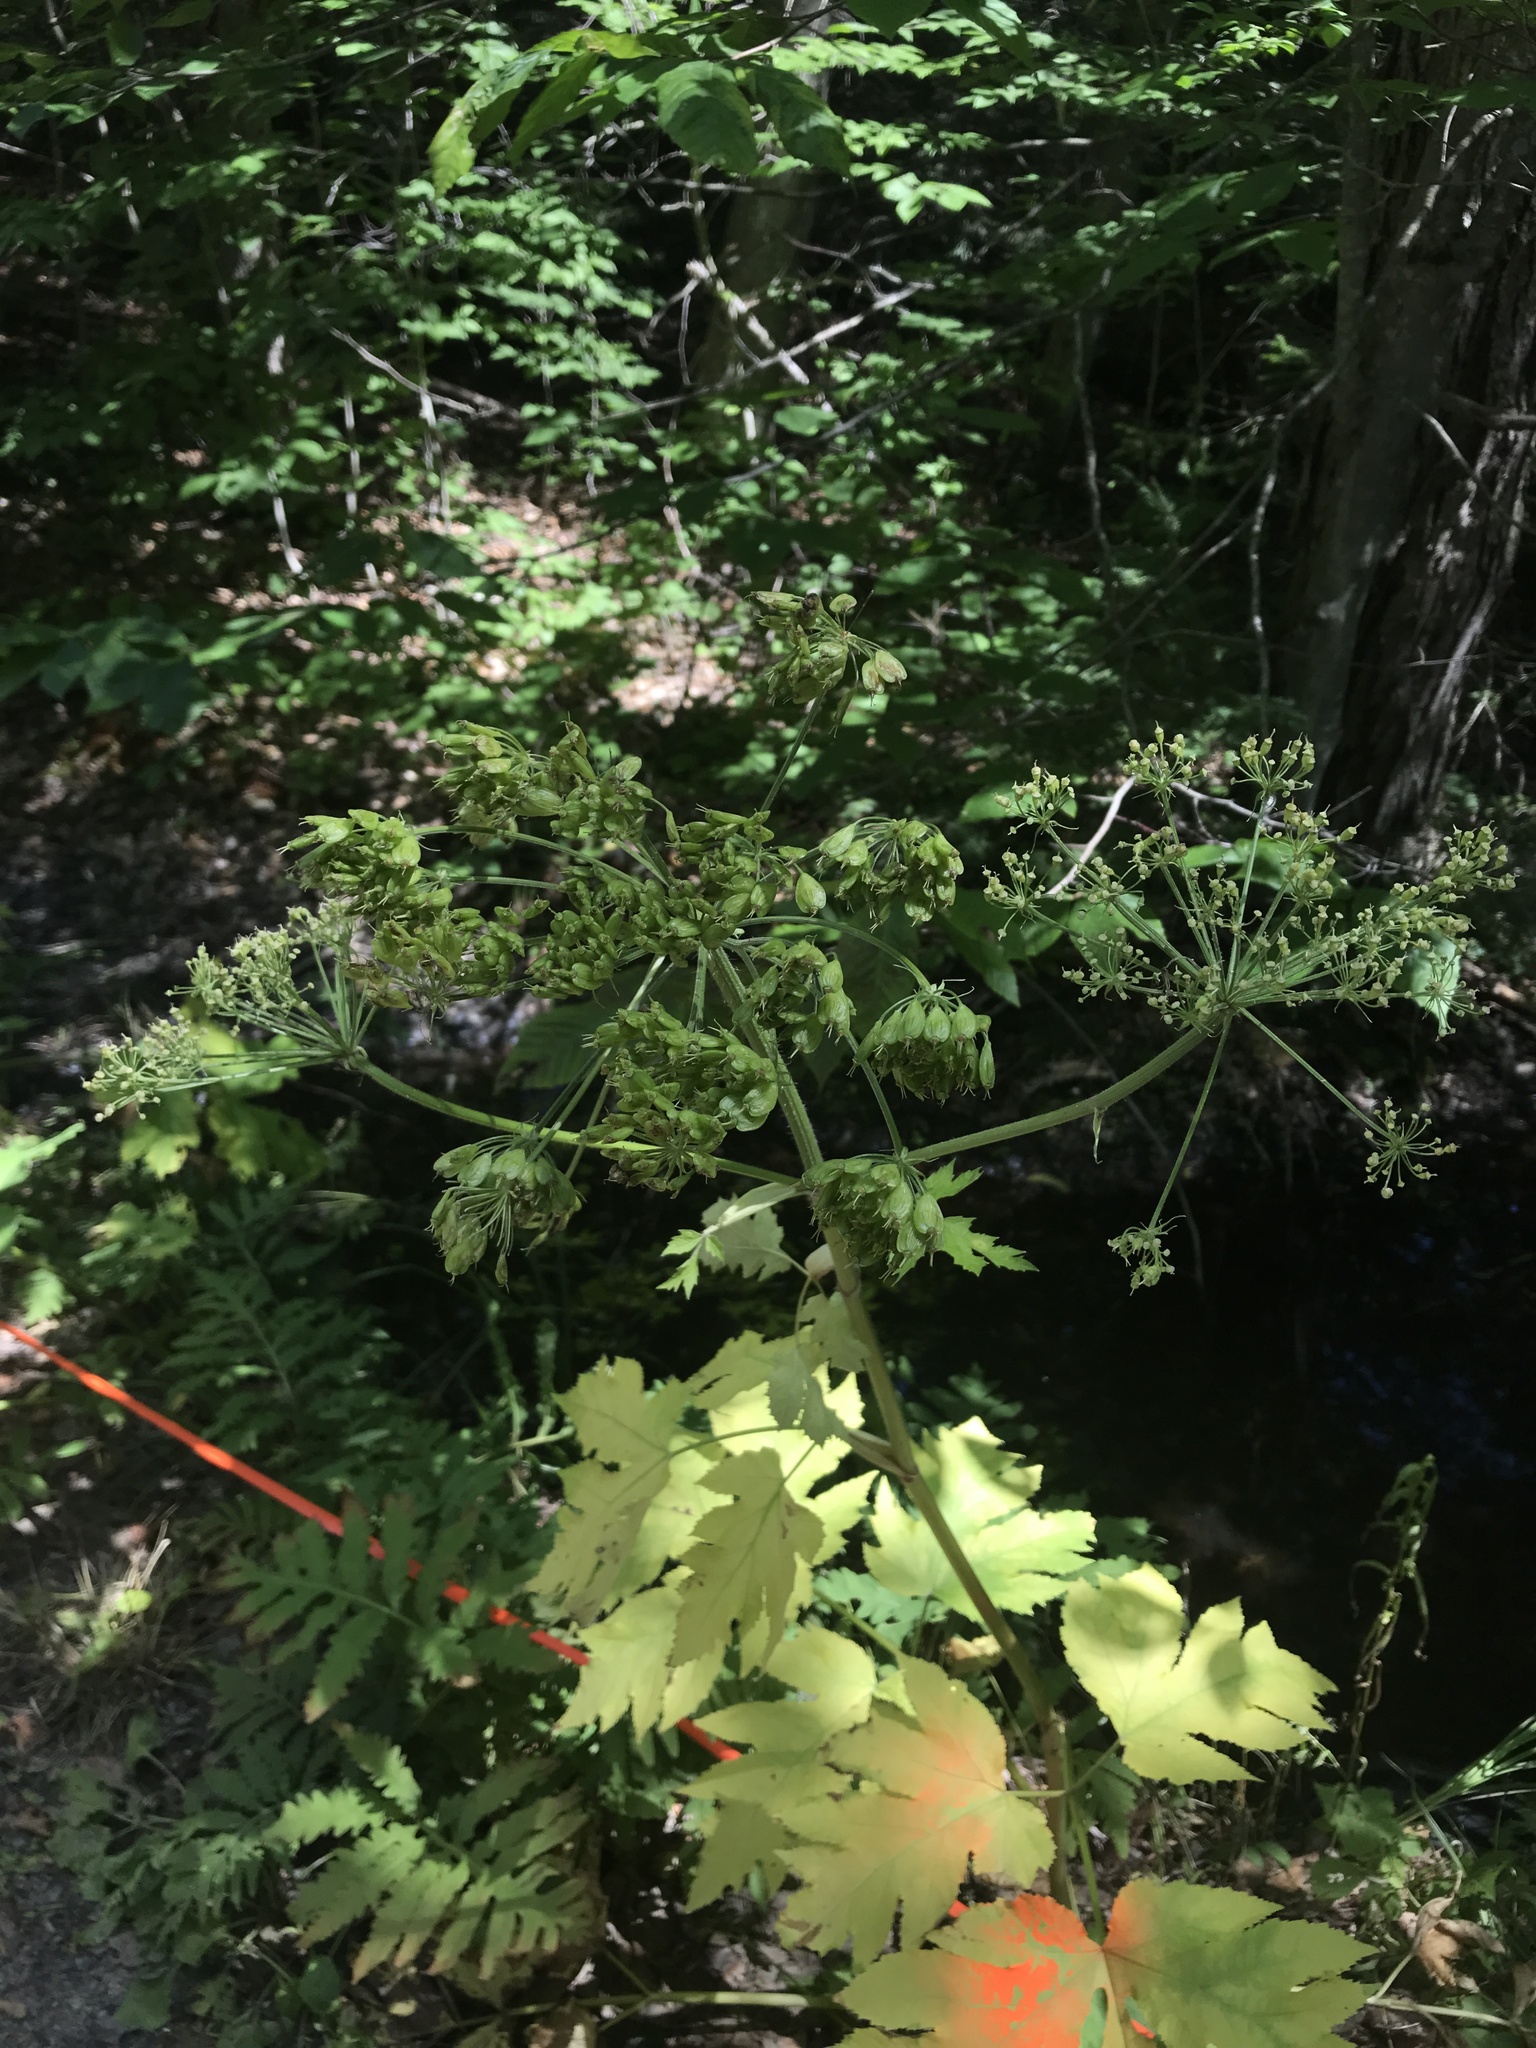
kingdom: Plantae
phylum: Tracheophyta
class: Magnoliopsida
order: Apiales
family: Apiaceae
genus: Heracleum
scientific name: Heracleum maximum
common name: American cow parsnip
